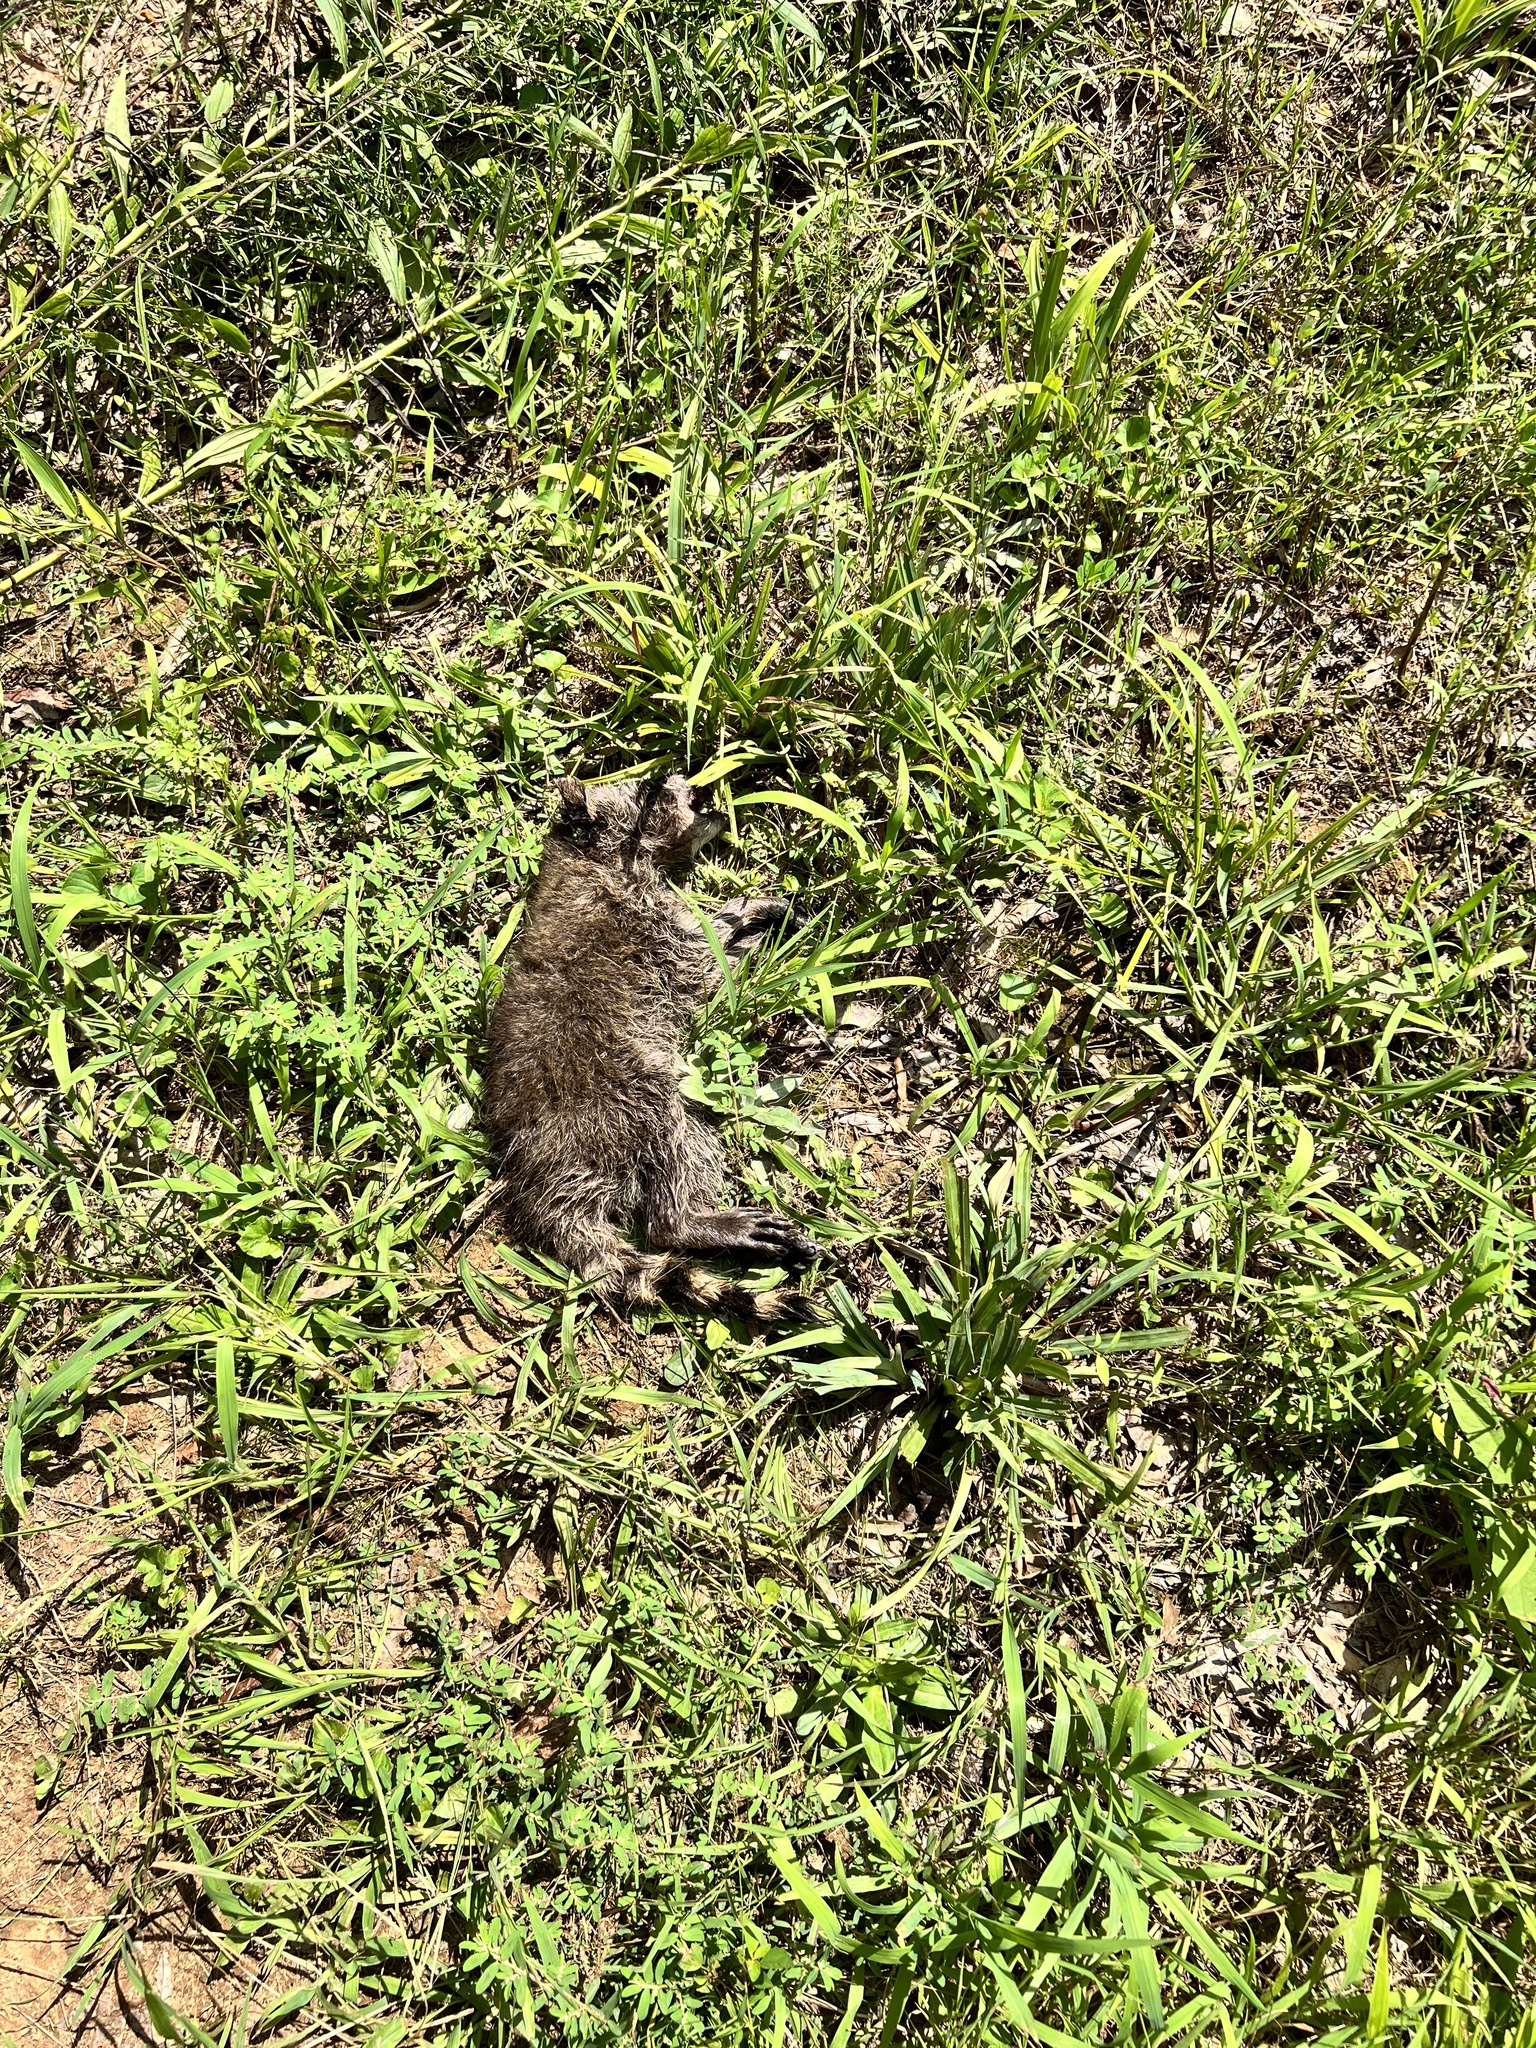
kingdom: Animalia
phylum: Chordata
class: Mammalia
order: Carnivora
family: Procyonidae
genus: Procyon
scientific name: Procyon lotor
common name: Raccoon
